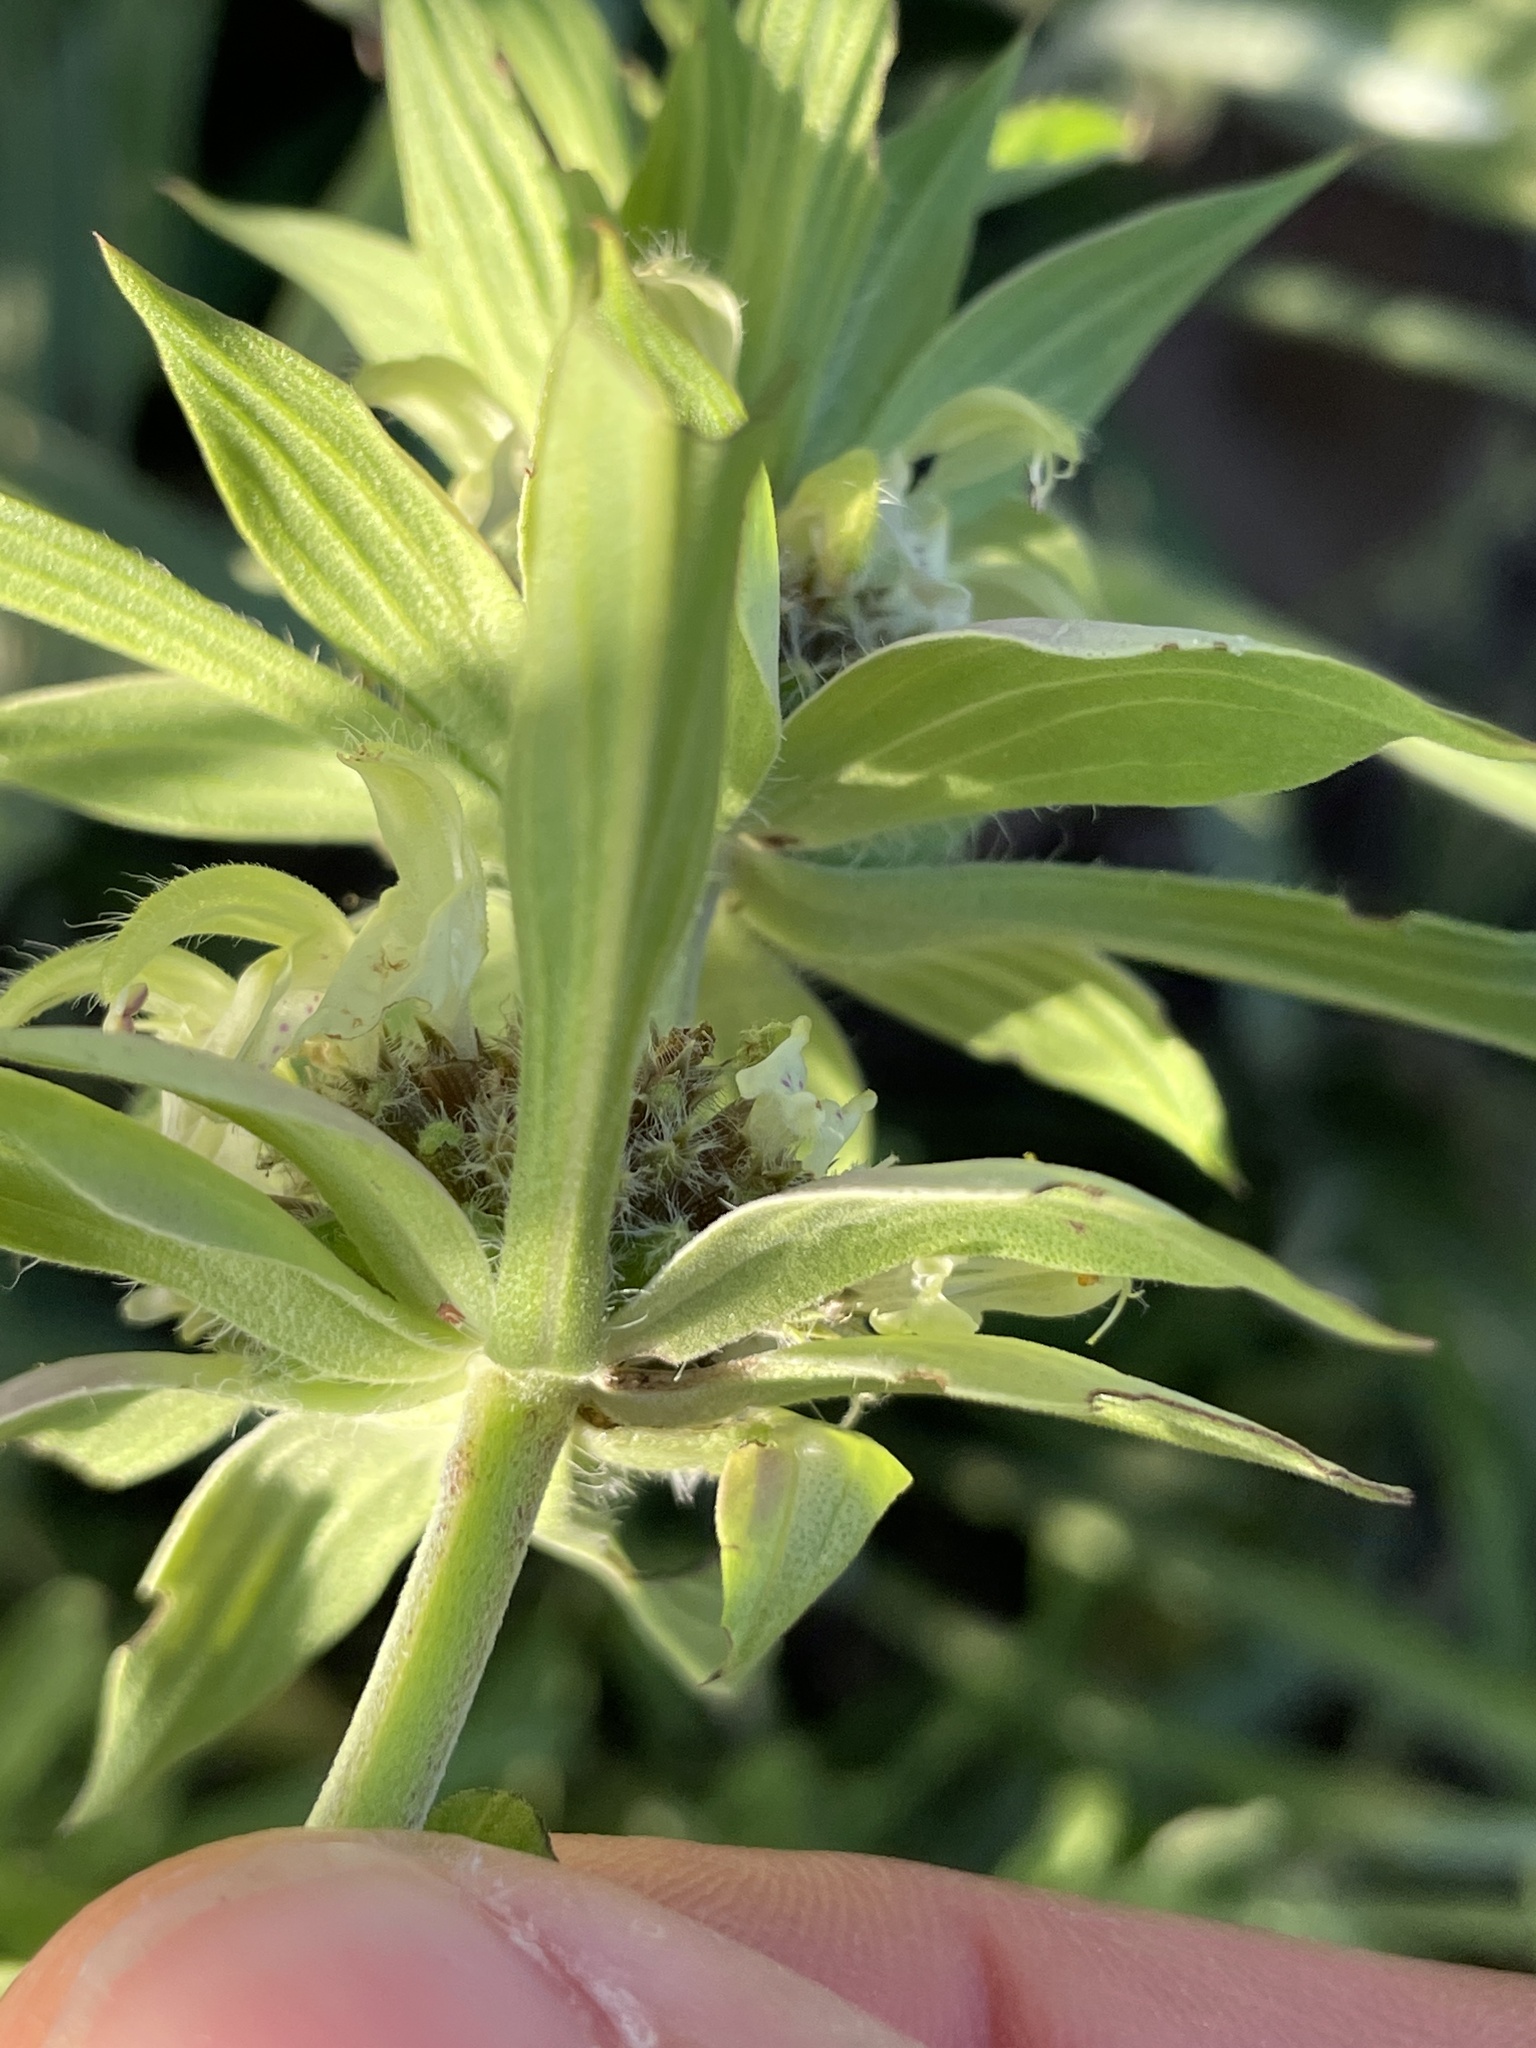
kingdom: Plantae
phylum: Tracheophyta
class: Magnoliopsida
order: Lamiales
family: Lamiaceae
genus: Monarda
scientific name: Monarda punctata
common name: Dotted monarda
